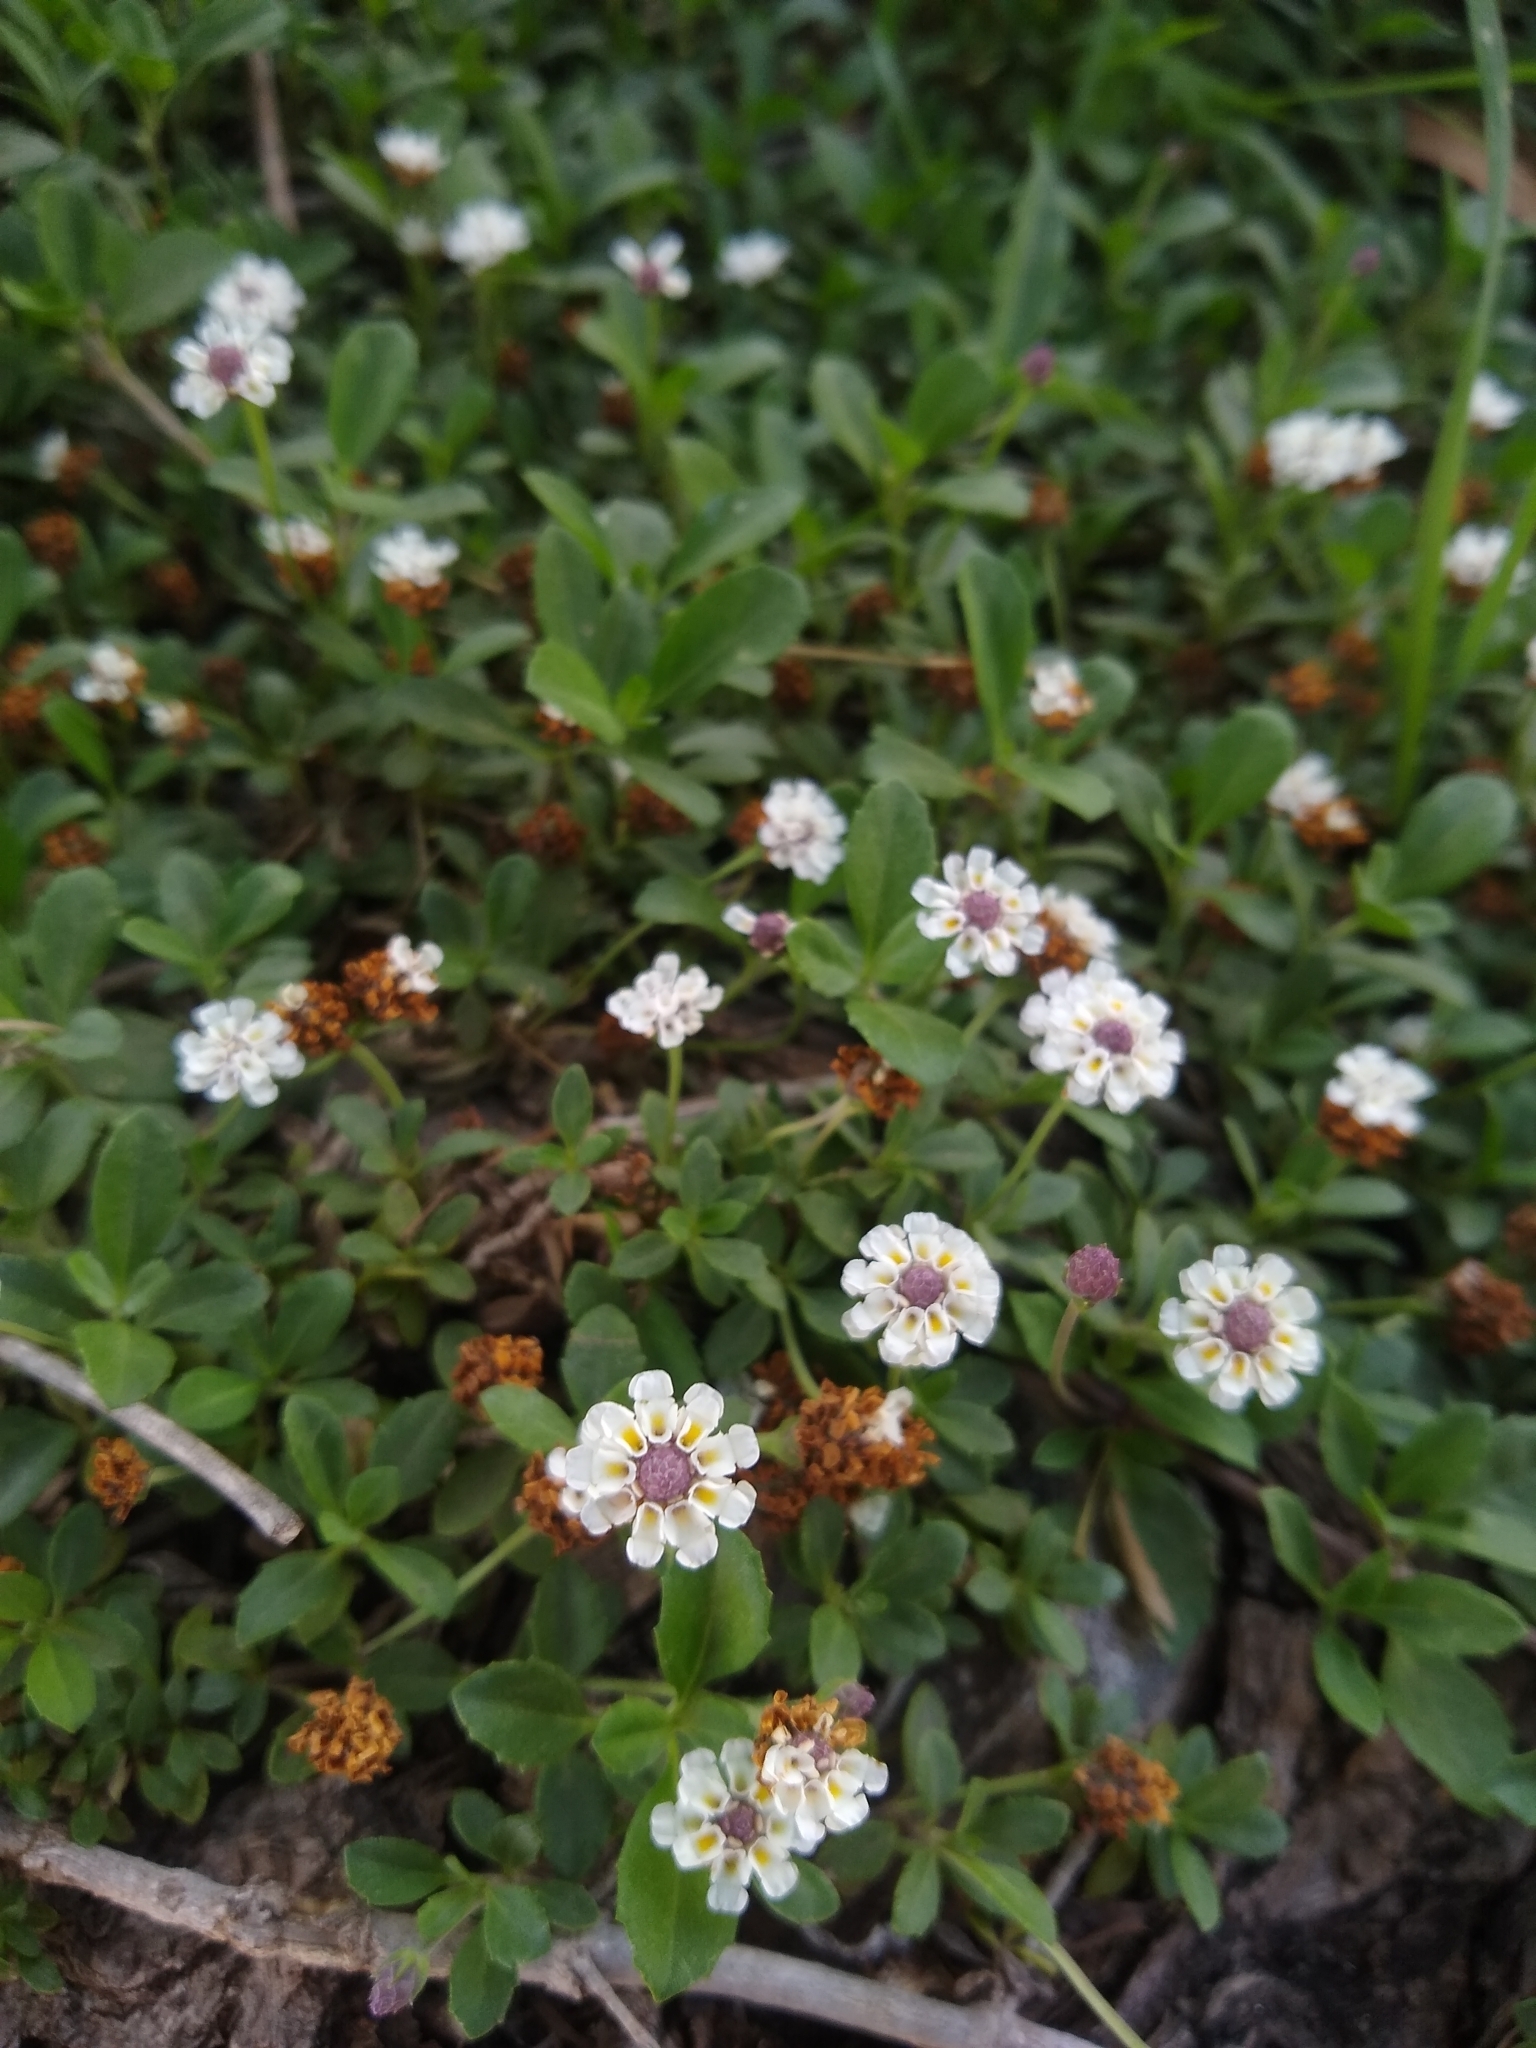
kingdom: Plantae
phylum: Tracheophyta
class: Magnoliopsida
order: Lamiales
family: Verbenaceae
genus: Phyla
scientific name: Phyla nodiflora
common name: Frogfruit
